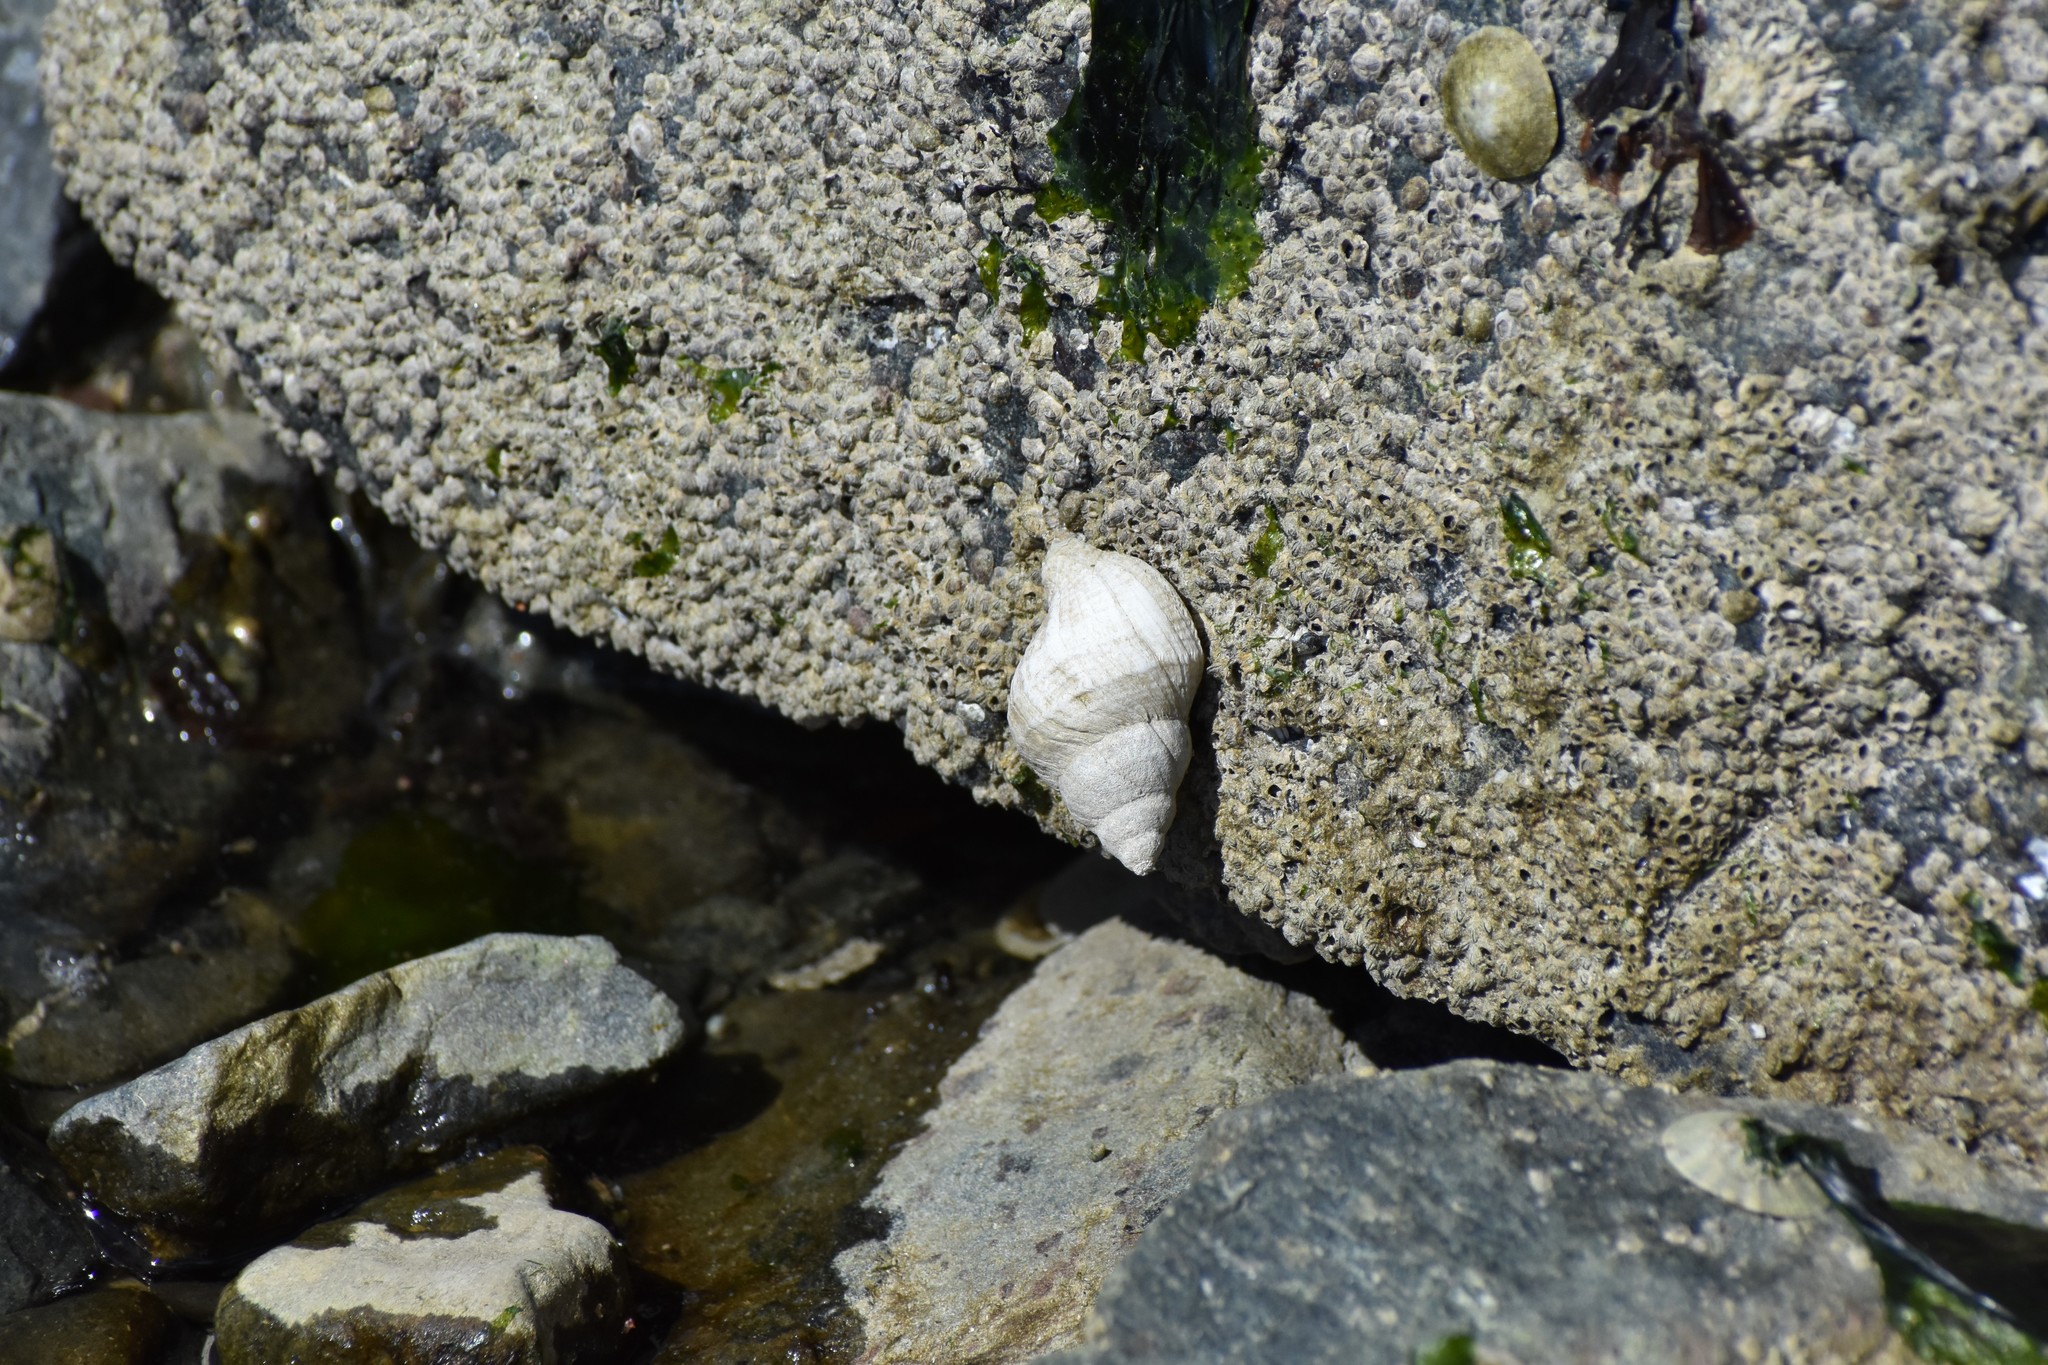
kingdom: Animalia
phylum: Mollusca
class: Gastropoda
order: Neogastropoda
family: Muricidae
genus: Nucella
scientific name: Nucella lamellosa
